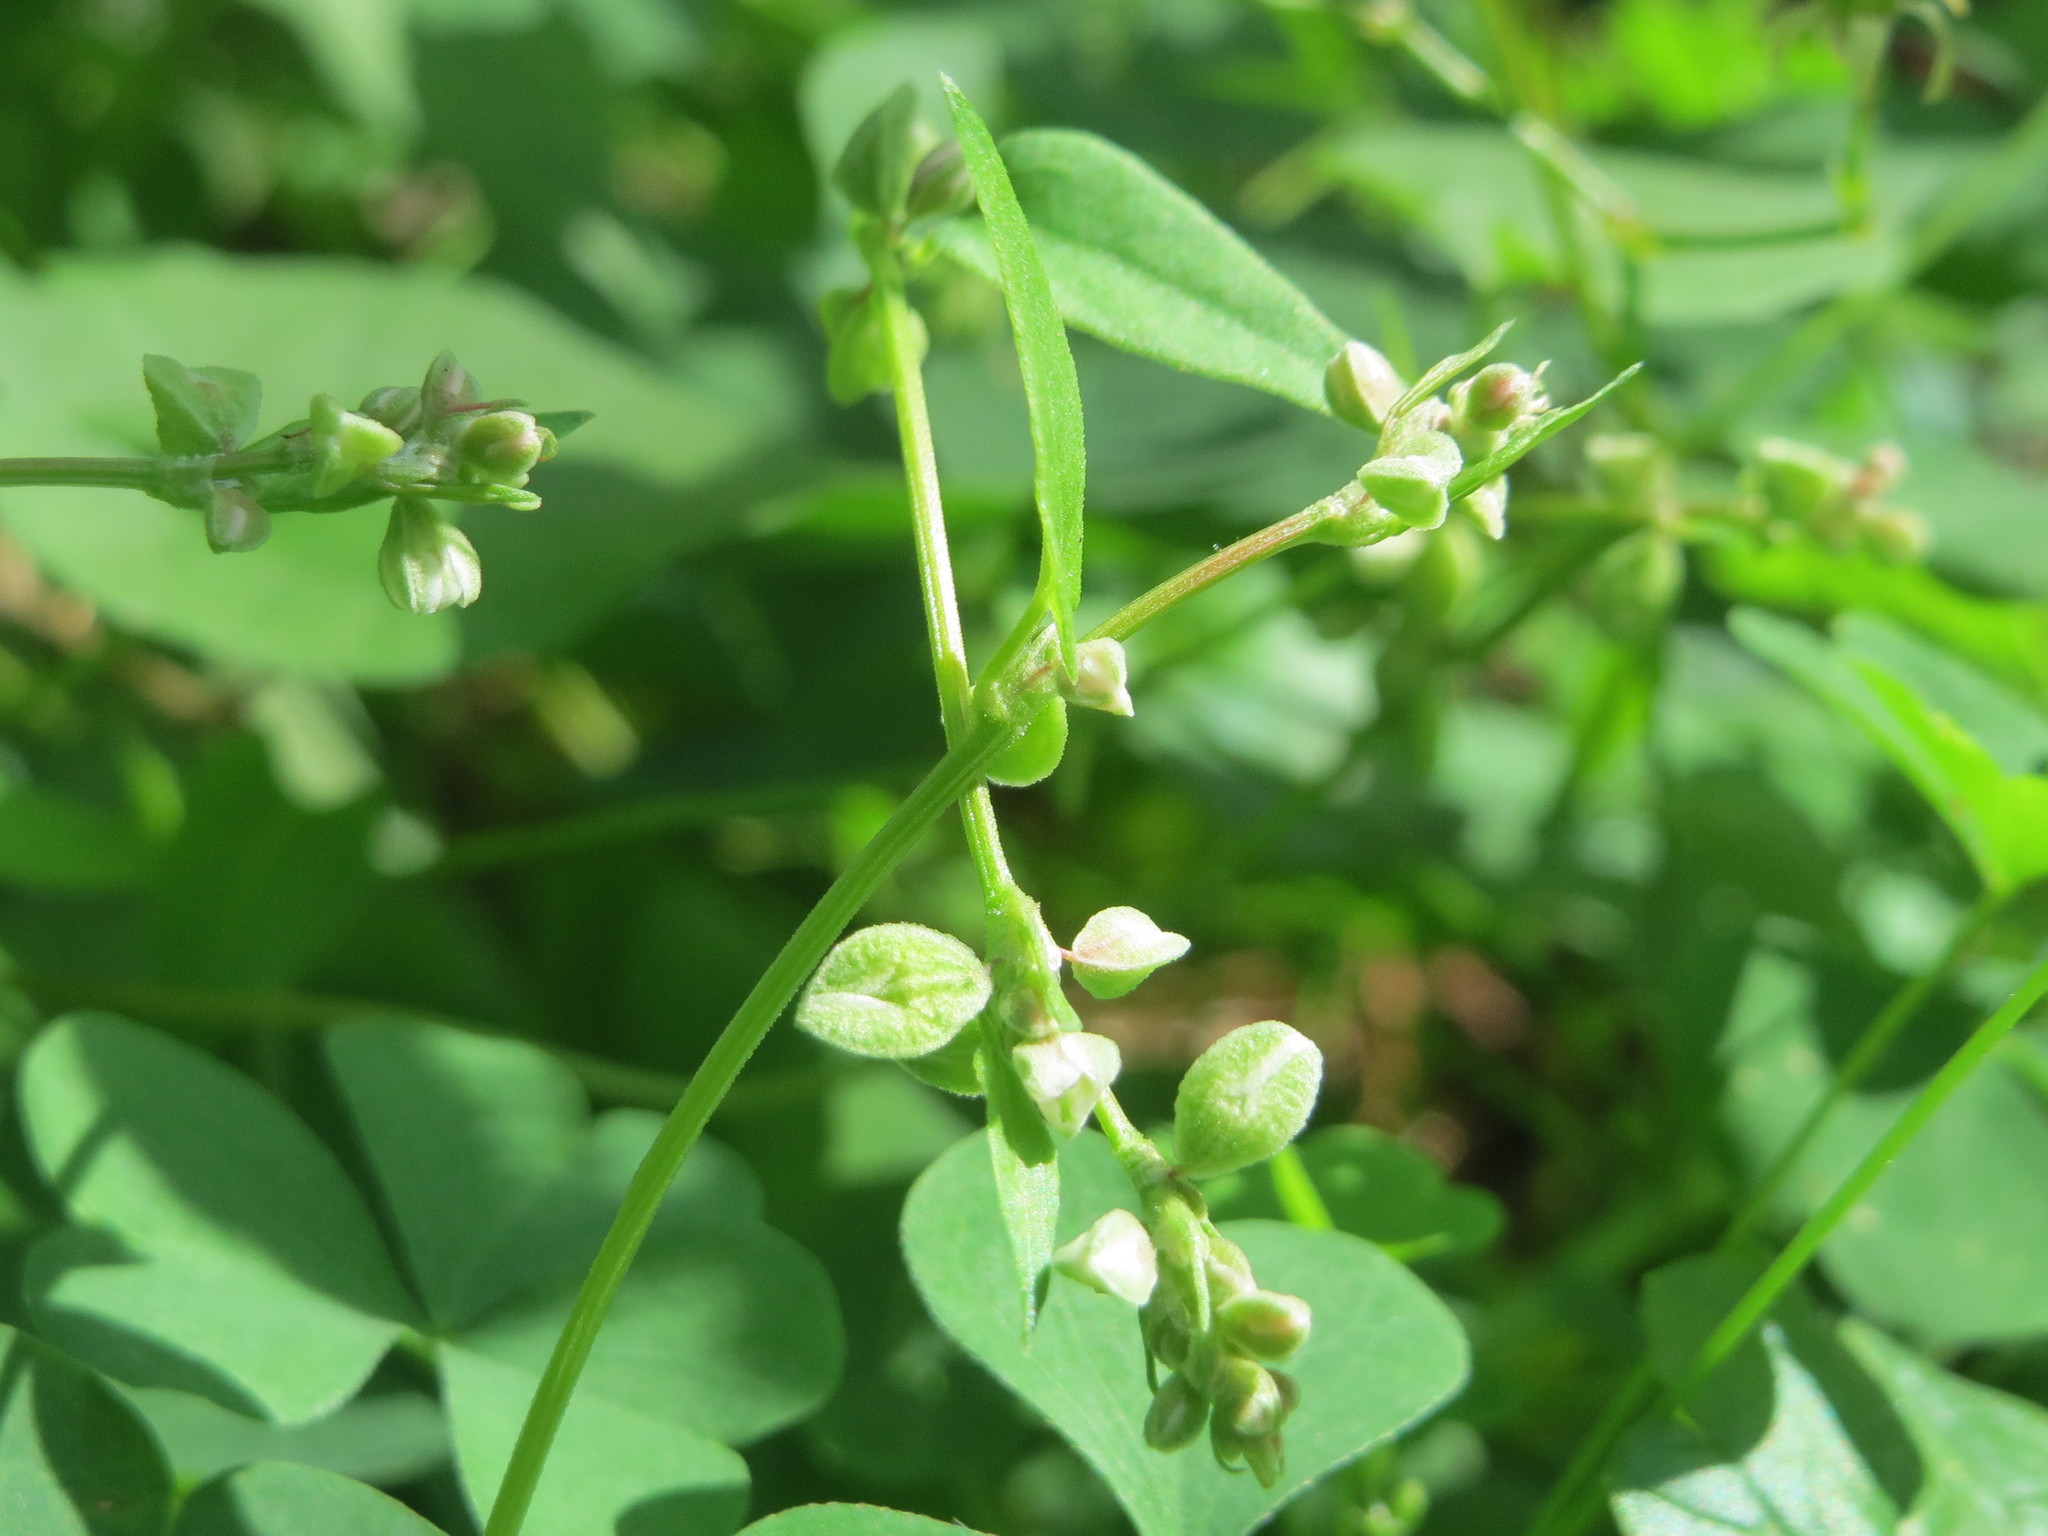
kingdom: Plantae
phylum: Tracheophyta
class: Magnoliopsida
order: Caryophyllales
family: Polygonaceae
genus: Fallopia
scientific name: Fallopia convolvulus
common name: Black bindweed
